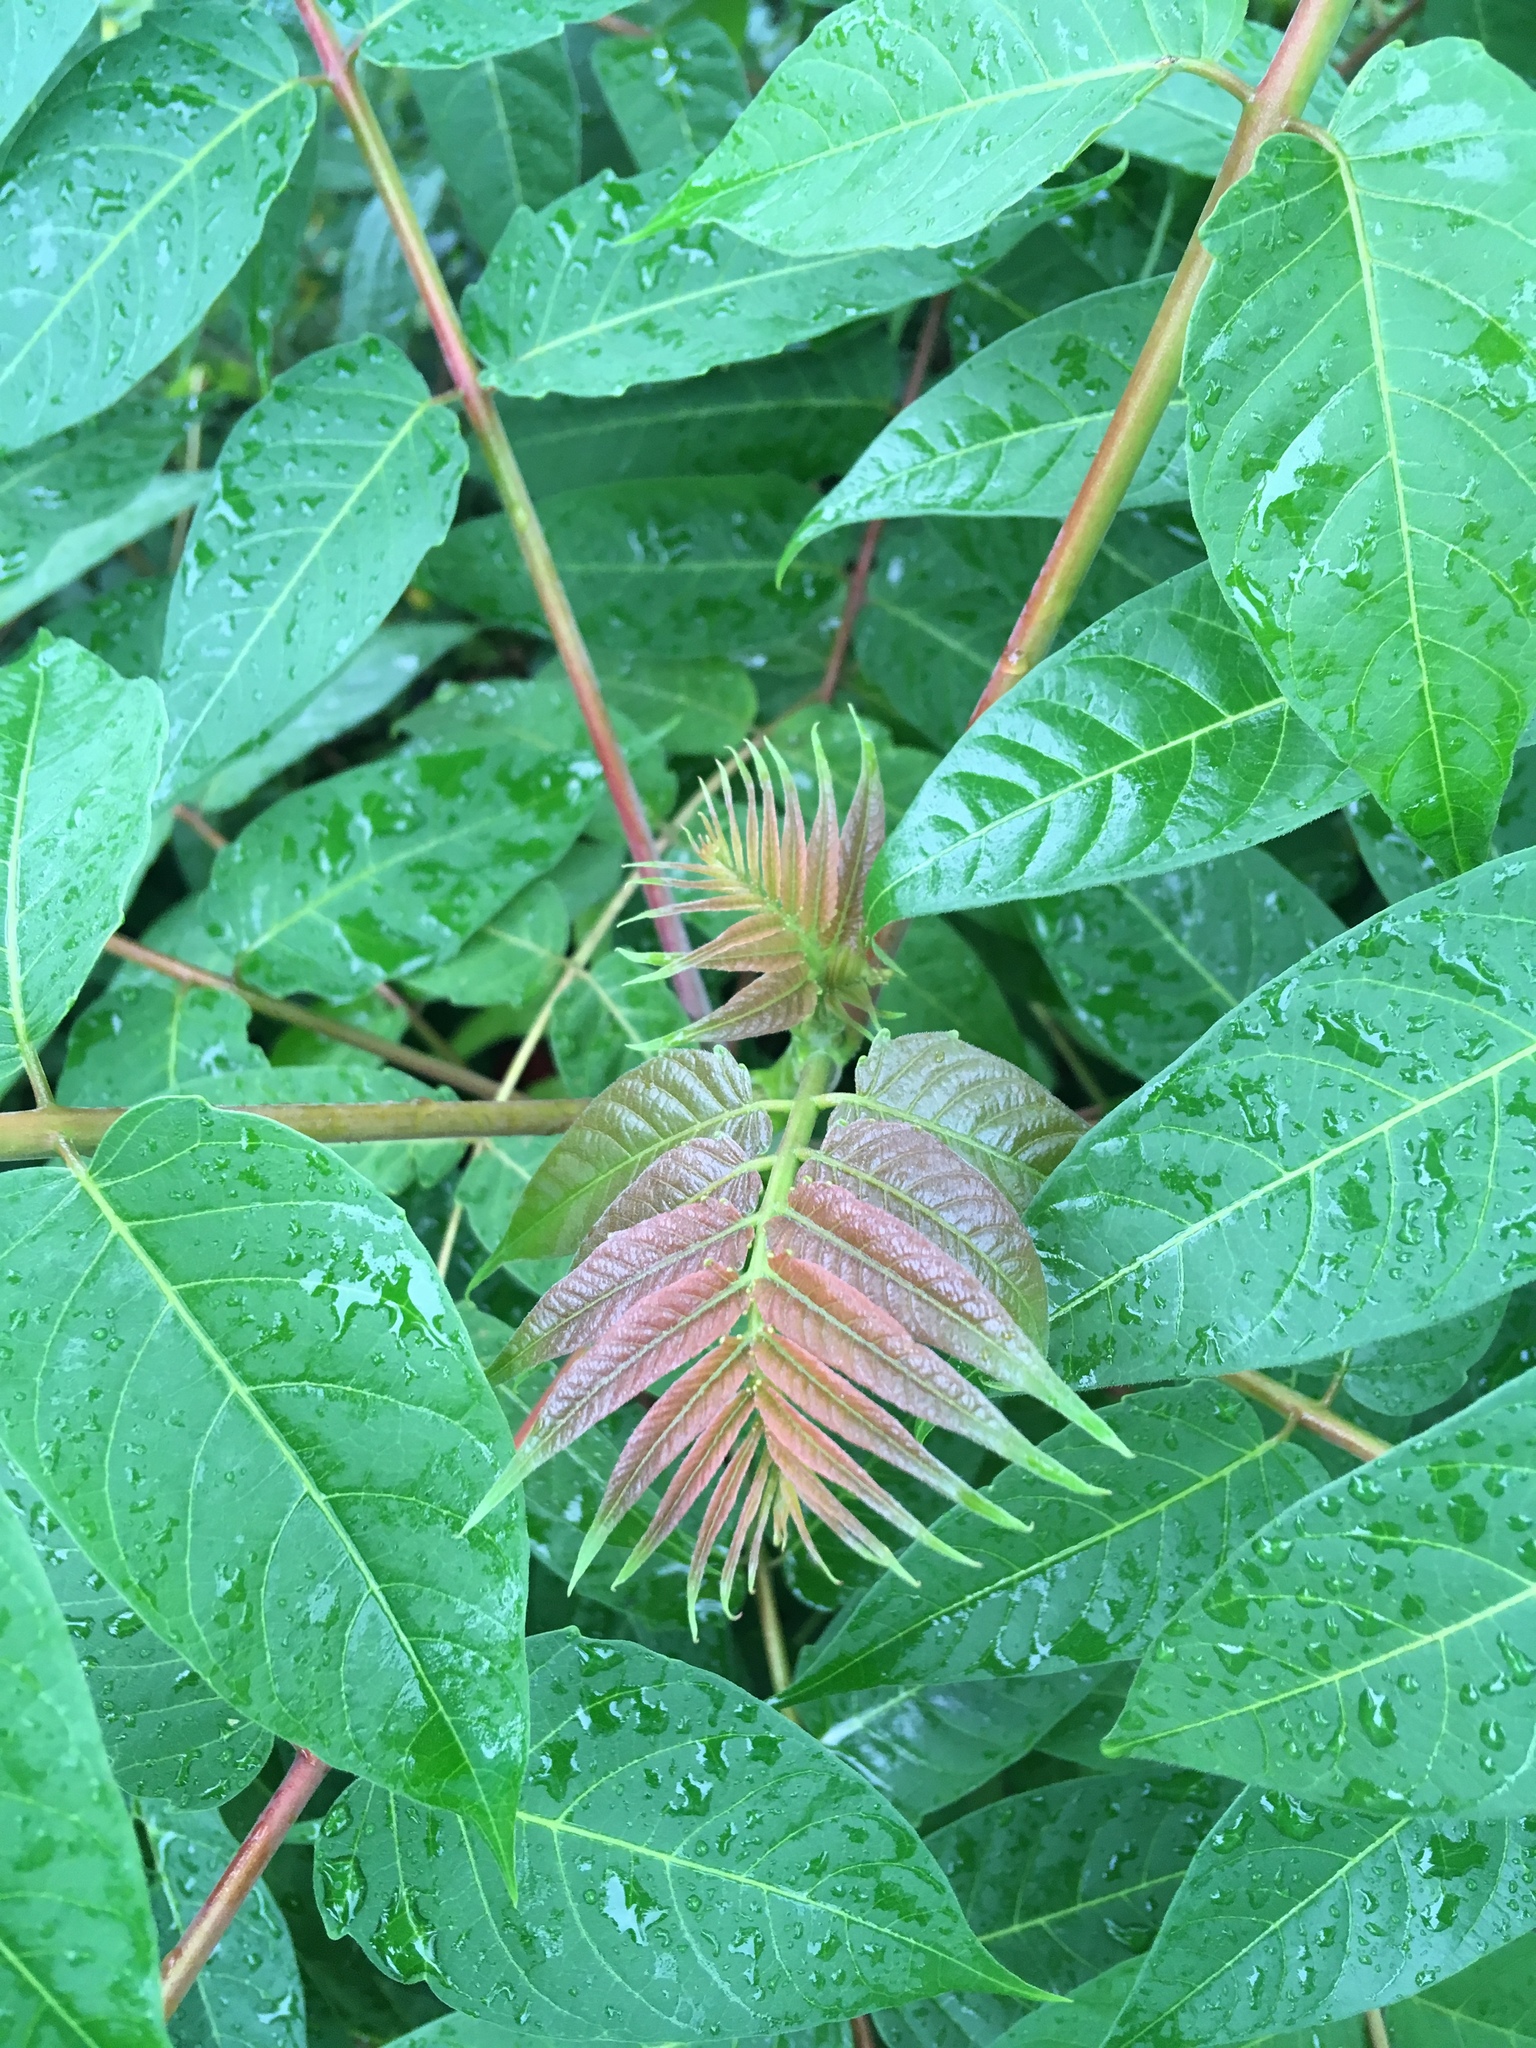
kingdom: Plantae
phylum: Tracheophyta
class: Magnoliopsida
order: Sapindales
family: Simaroubaceae
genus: Ailanthus
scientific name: Ailanthus altissima
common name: Tree-of-heaven
